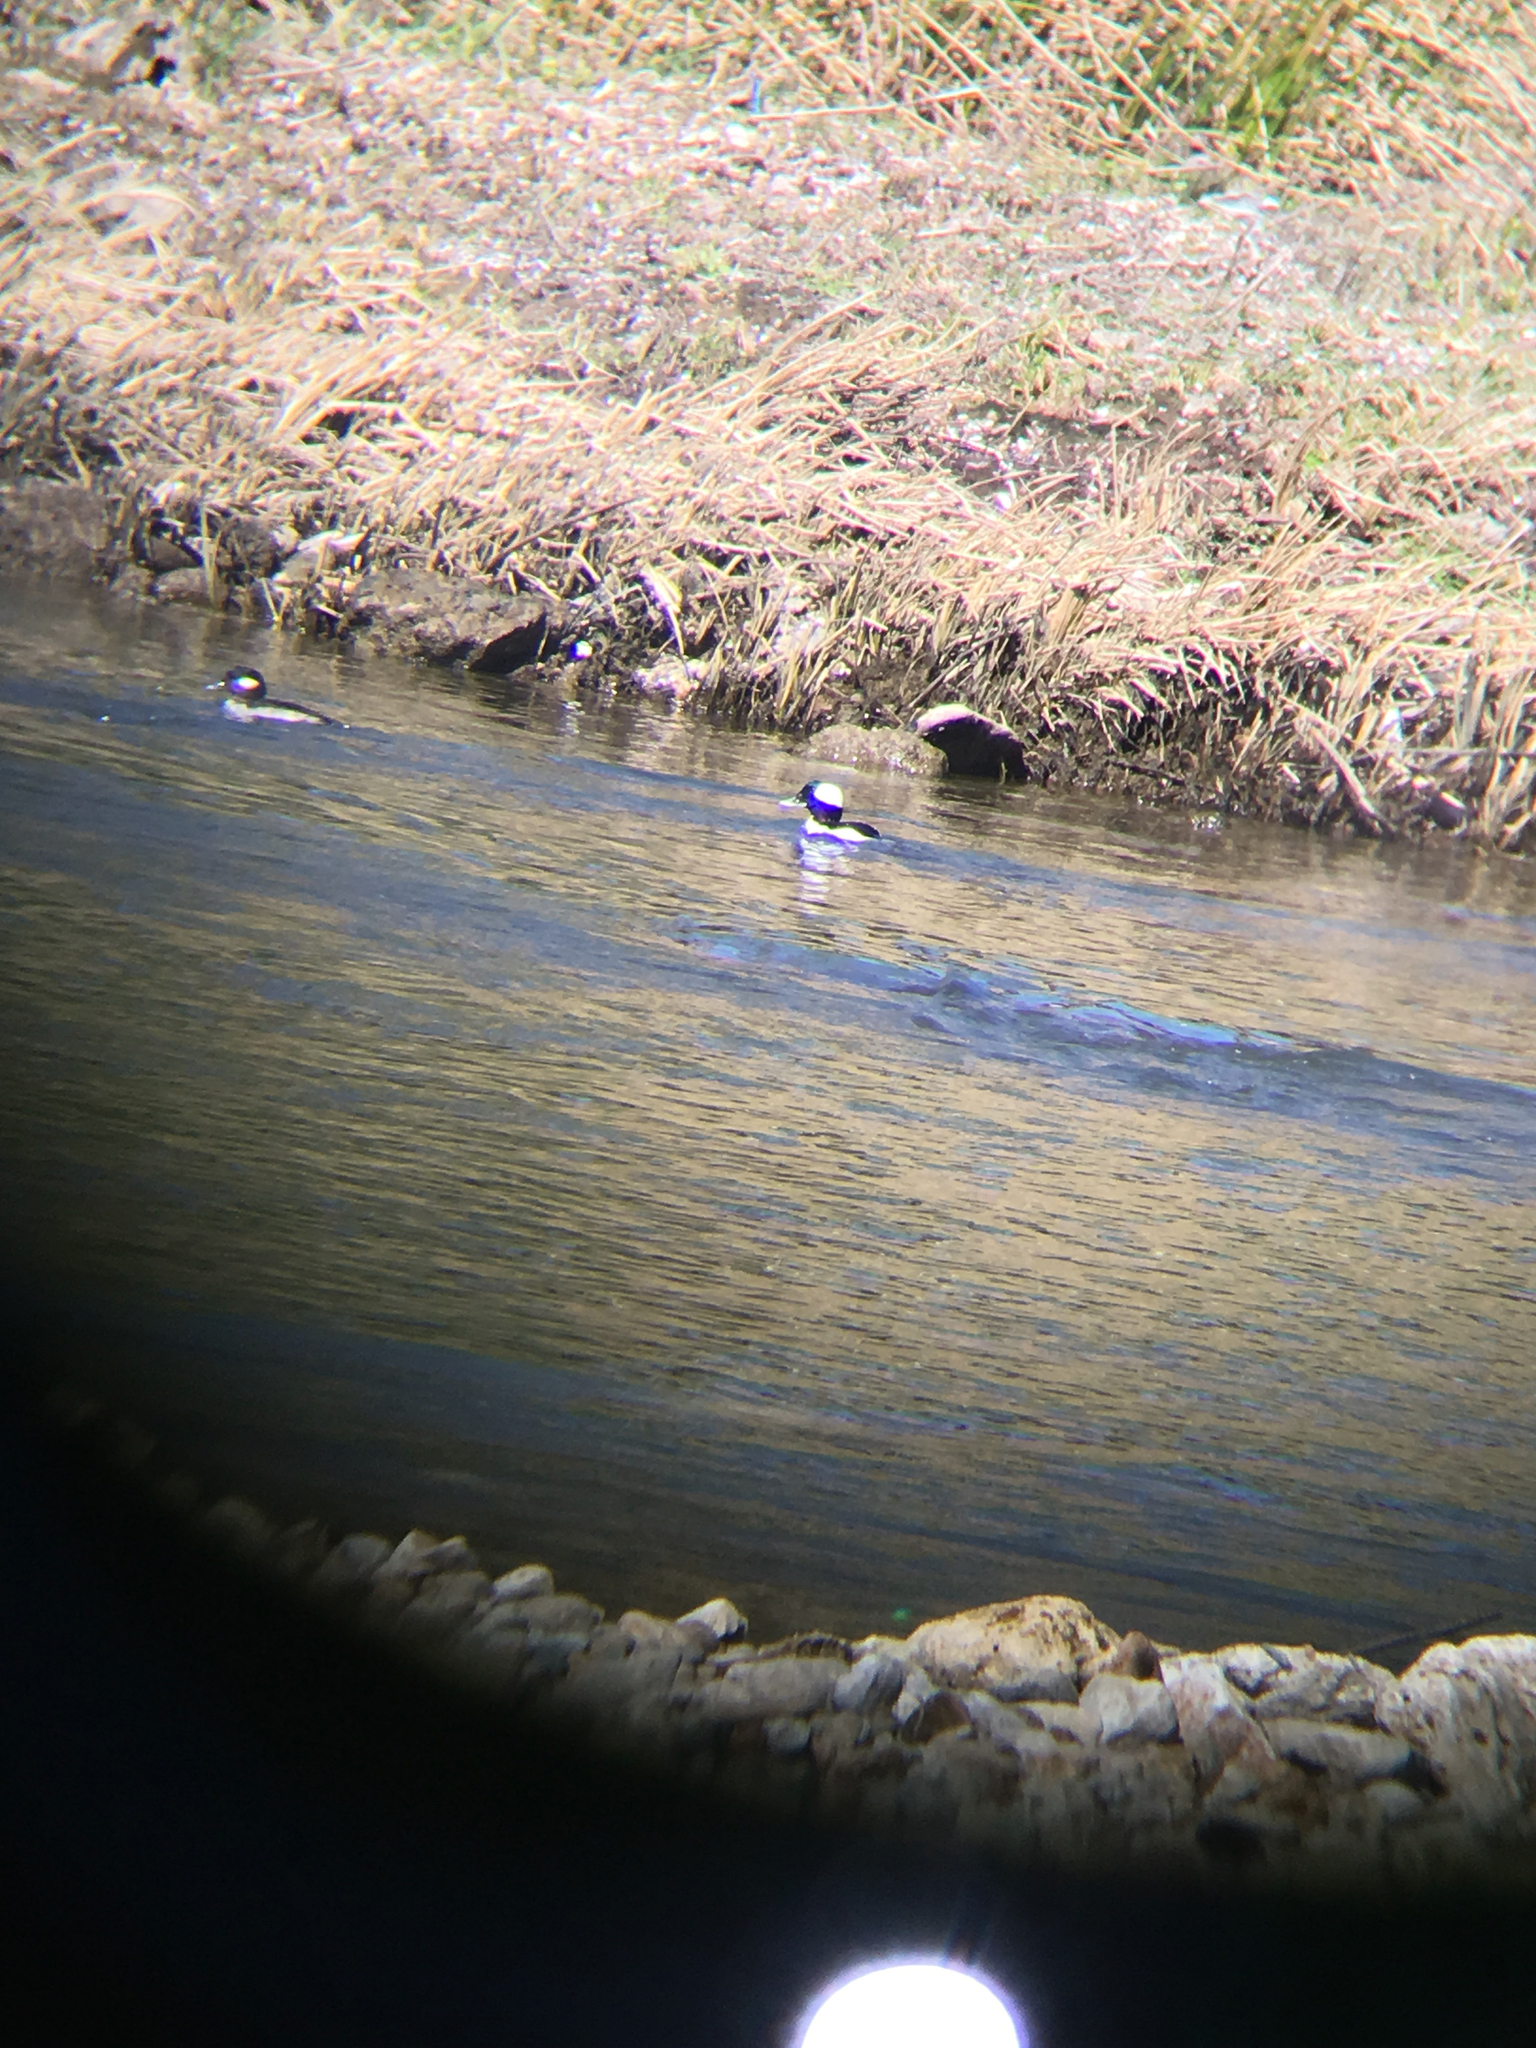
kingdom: Animalia
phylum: Chordata
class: Aves
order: Anseriformes
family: Anatidae
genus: Bucephala
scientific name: Bucephala albeola
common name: Bufflehead
